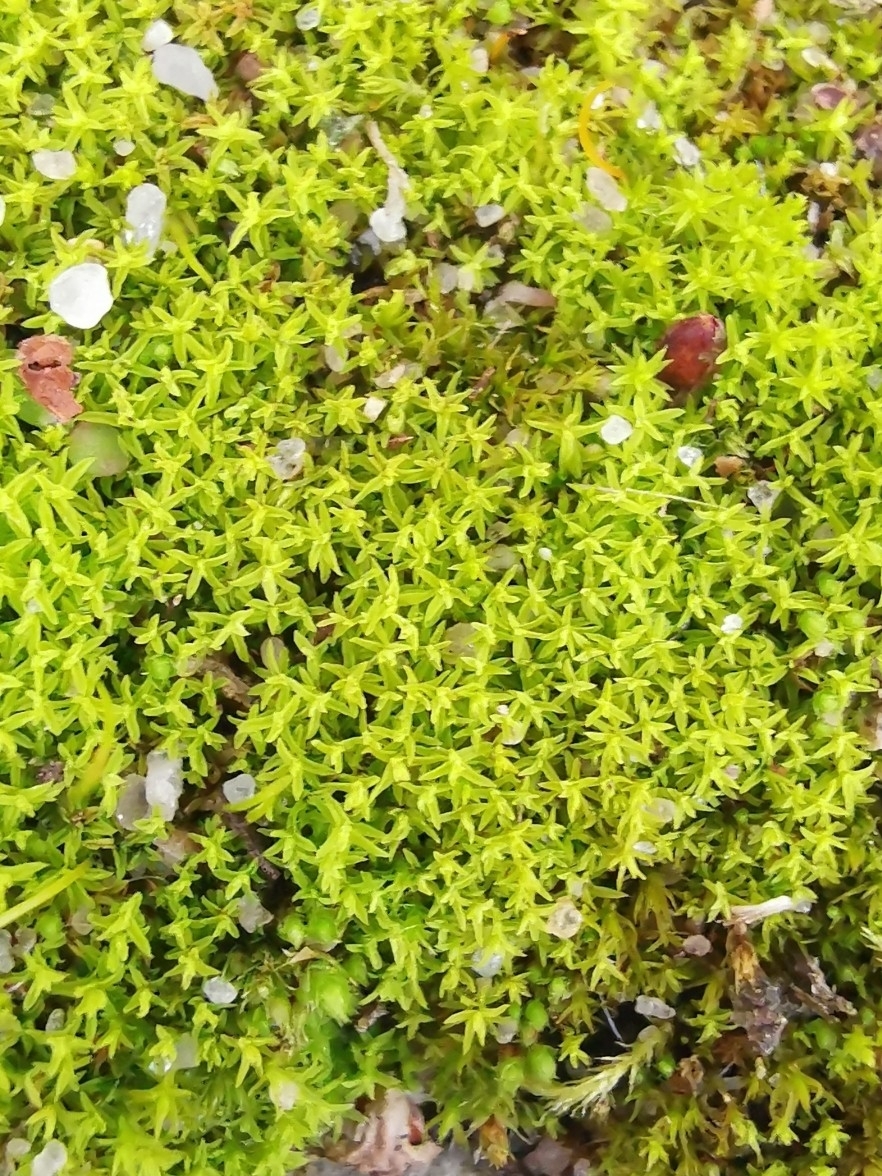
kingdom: Plantae
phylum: Bryophyta
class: Bryopsida
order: Pottiales
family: Pottiaceae
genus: Barbula
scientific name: Barbula unguiculata
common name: Prickly beard moss
